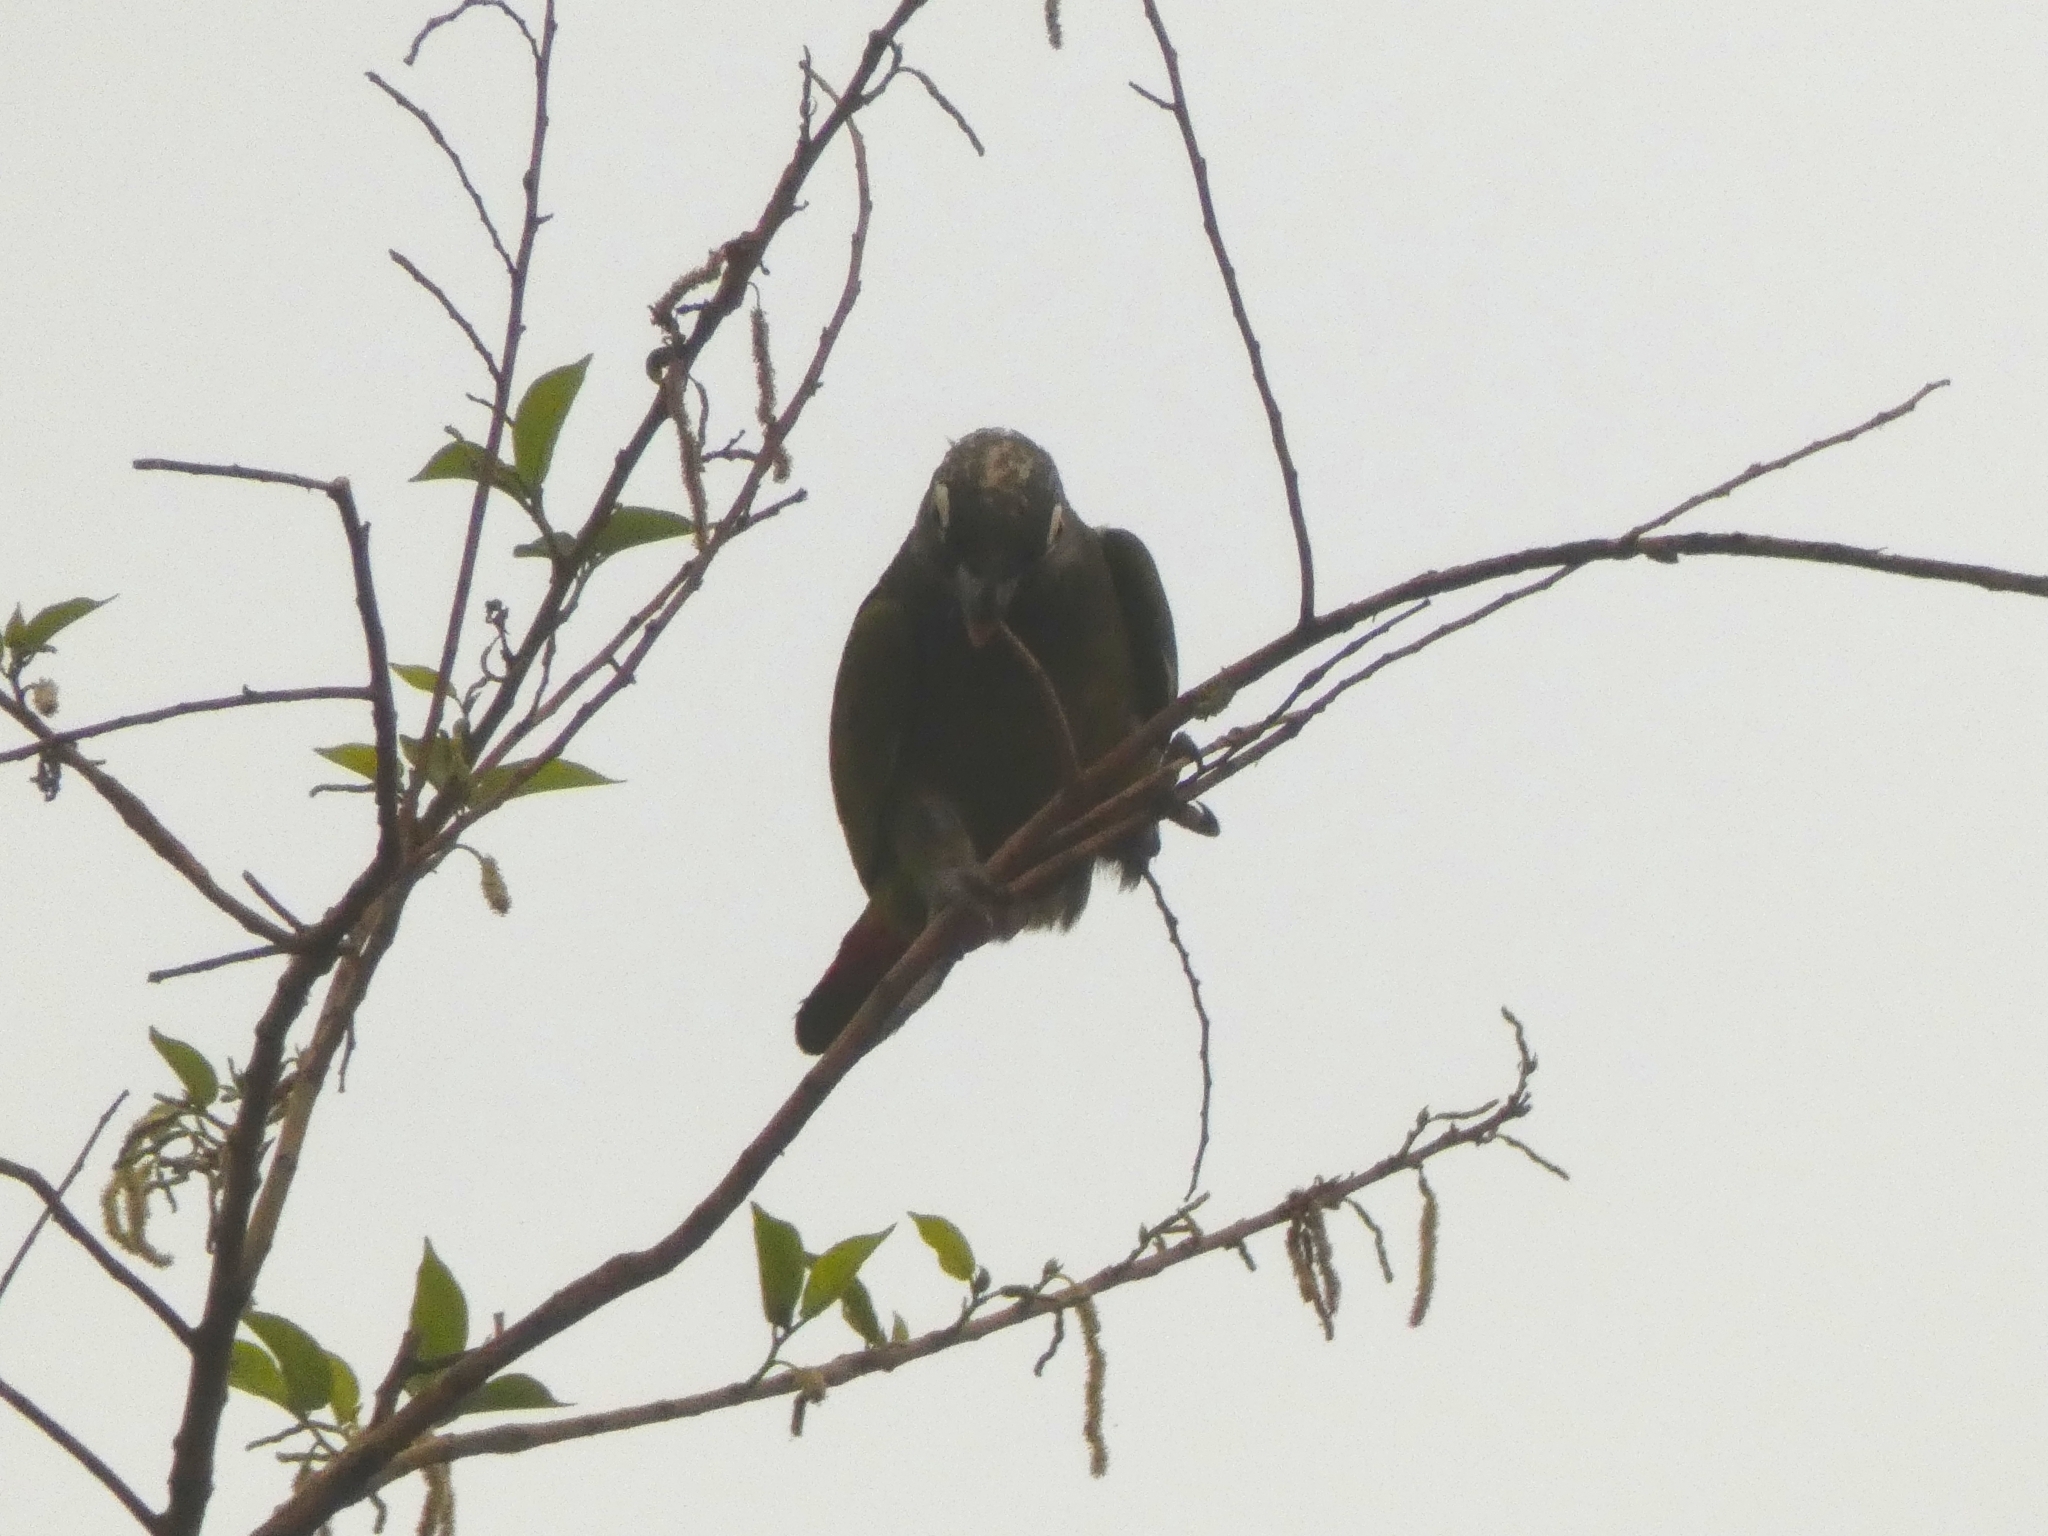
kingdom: Animalia
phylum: Chordata
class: Aves
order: Psittaciformes
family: Psittacidae
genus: Pionus
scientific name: Pionus maximiliani
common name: Scaly-headed parrot
